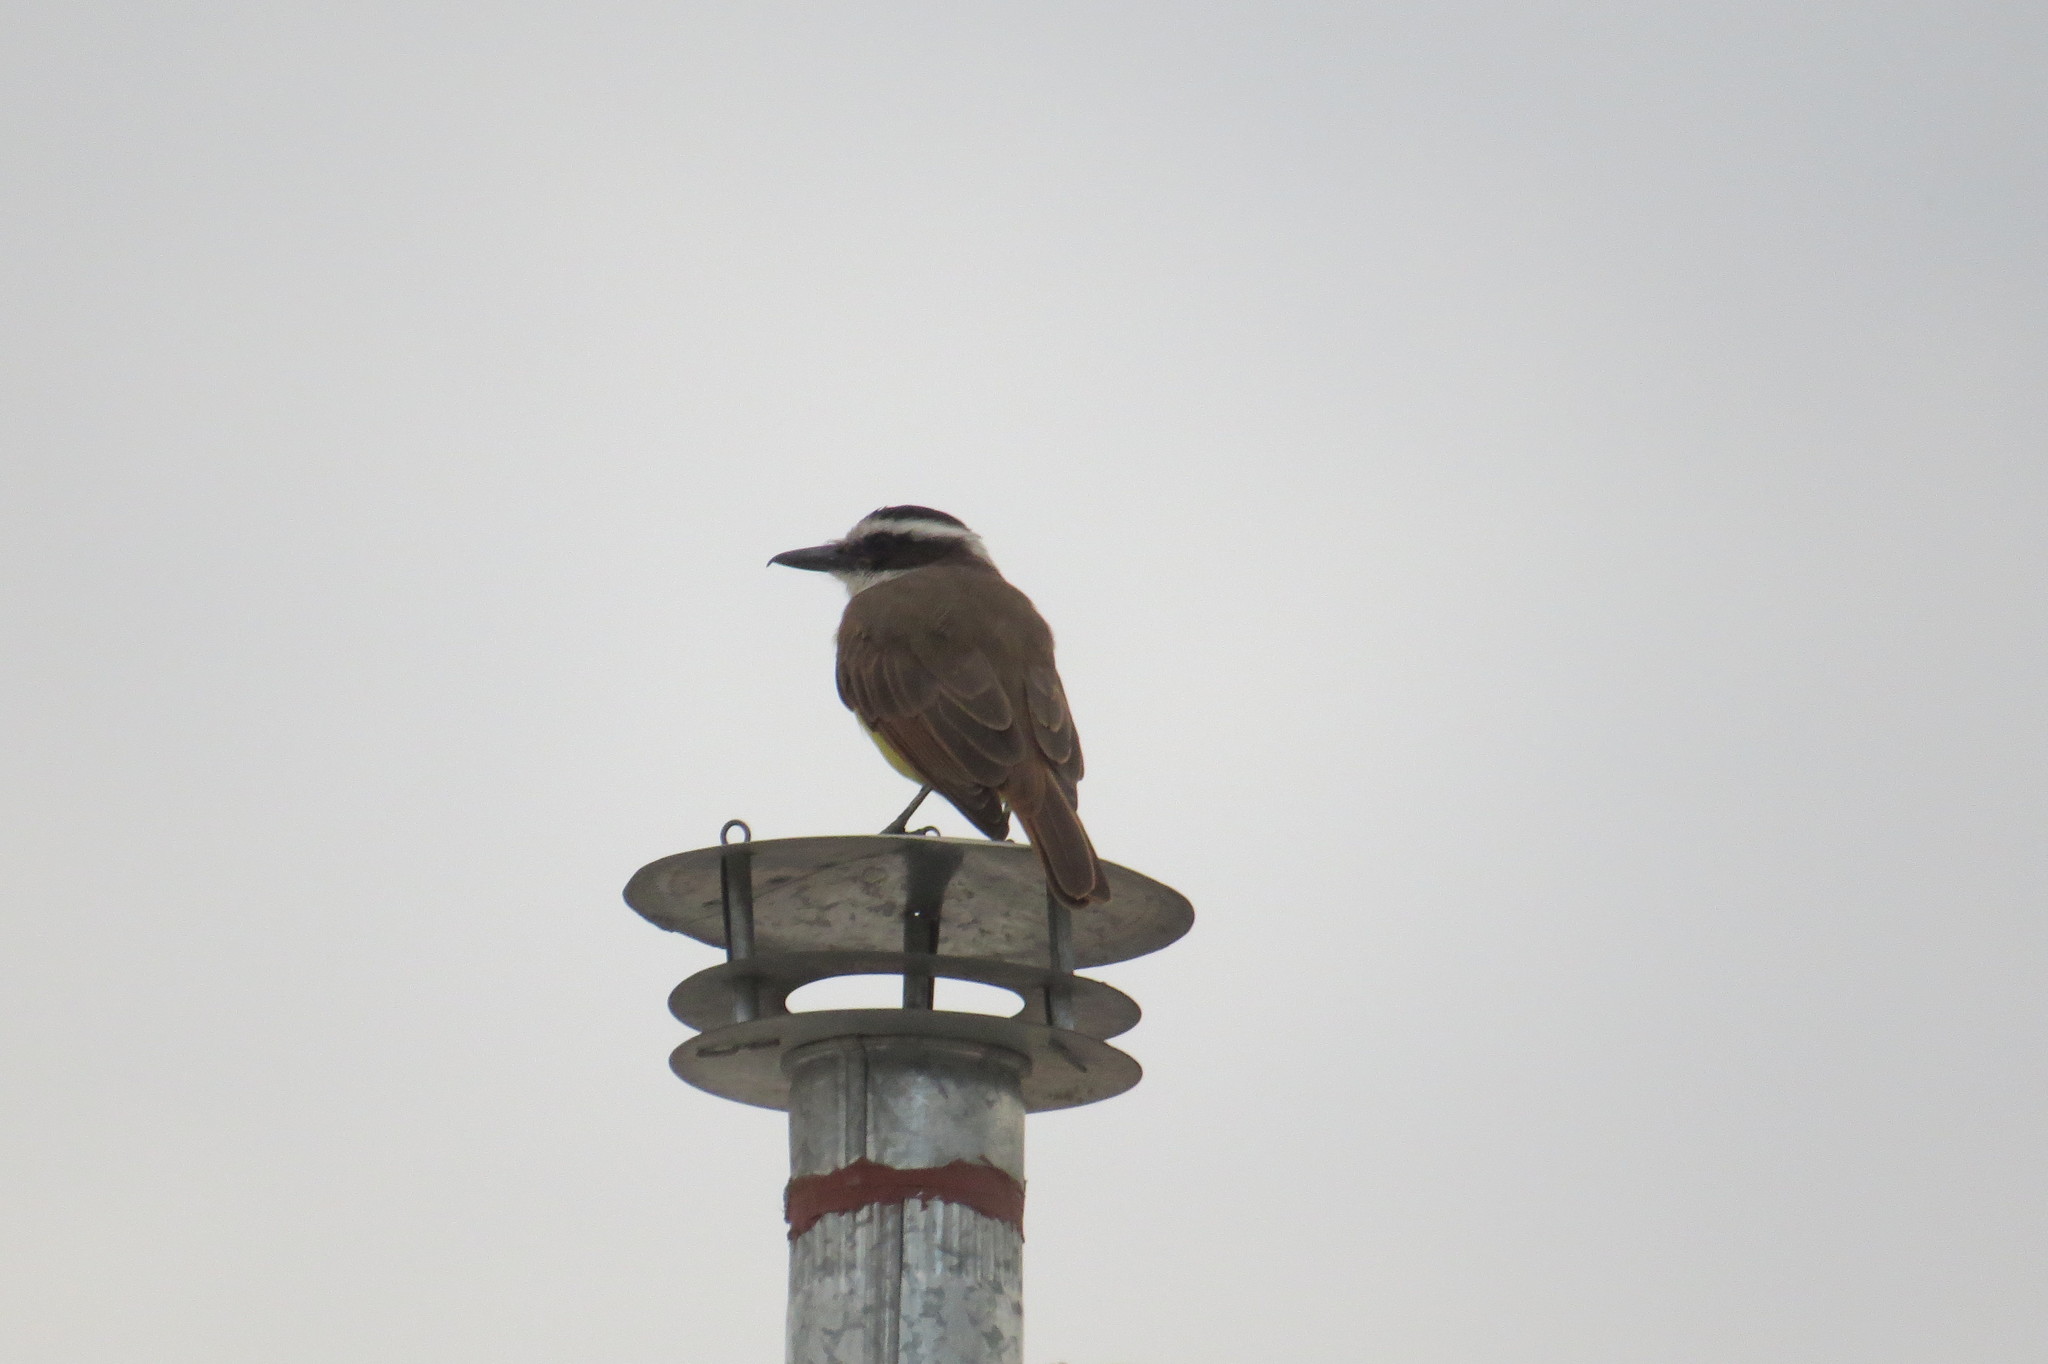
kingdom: Animalia
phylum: Chordata
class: Aves
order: Passeriformes
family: Tyrannidae
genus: Pitangus
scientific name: Pitangus sulphuratus
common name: Great kiskadee
